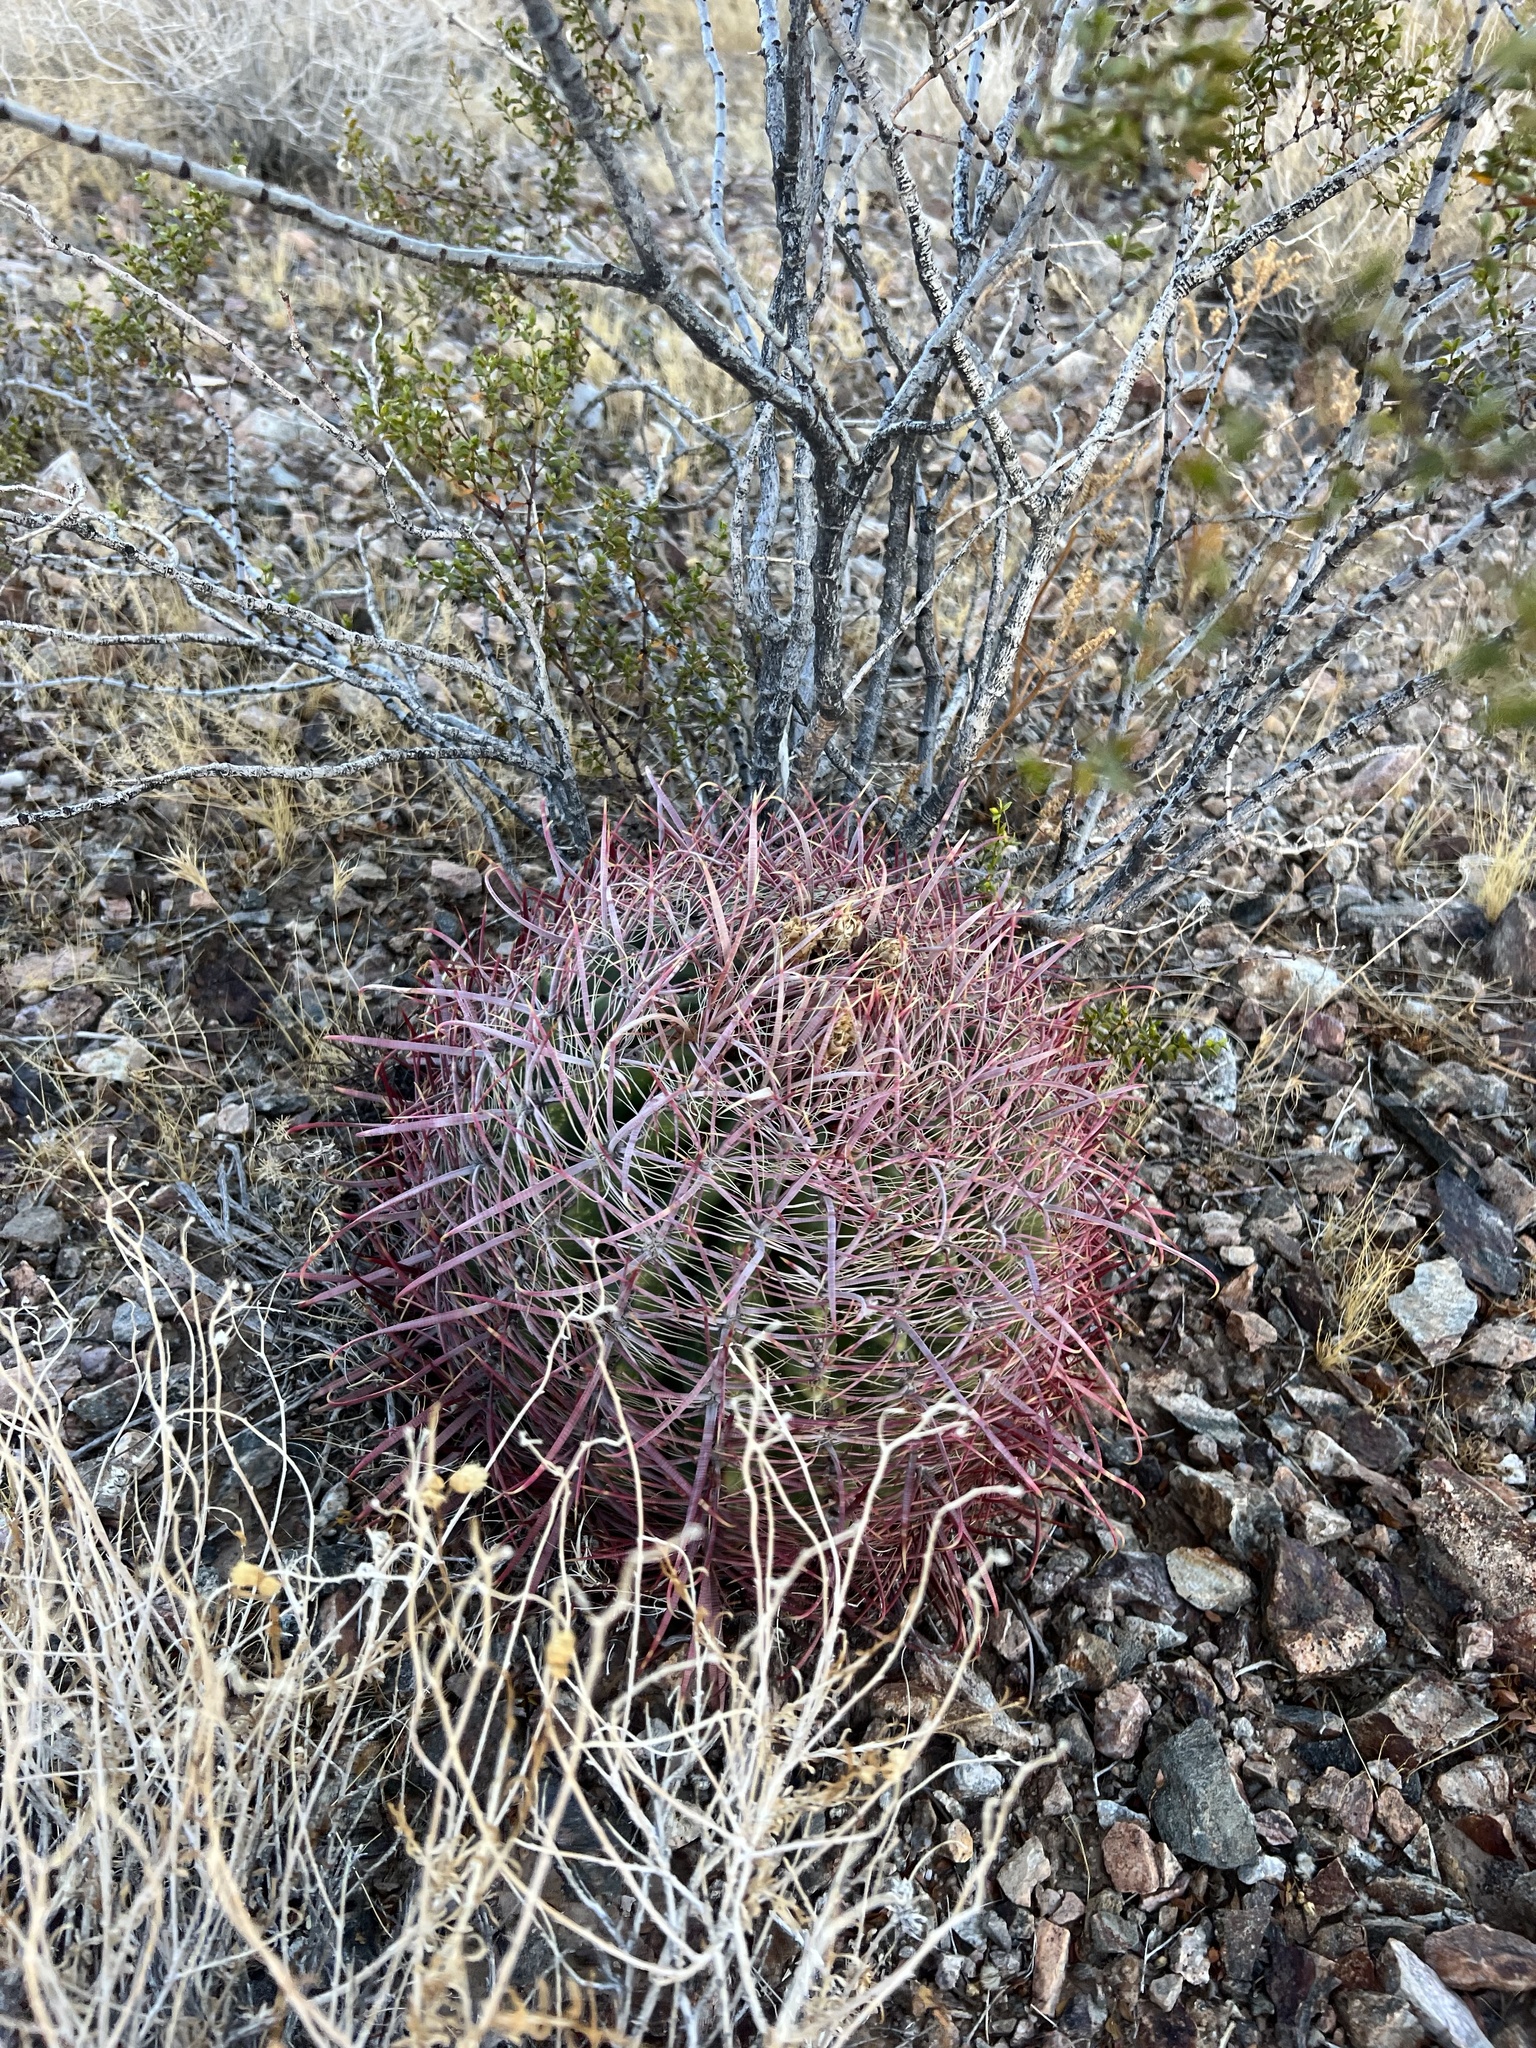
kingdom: Plantae
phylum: Tracheophyta
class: Magnoliopsida
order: Caryophyllales
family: Cactaceae
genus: Ferocactus
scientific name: Ferocactus cylindraceus
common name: California barrel cactus
